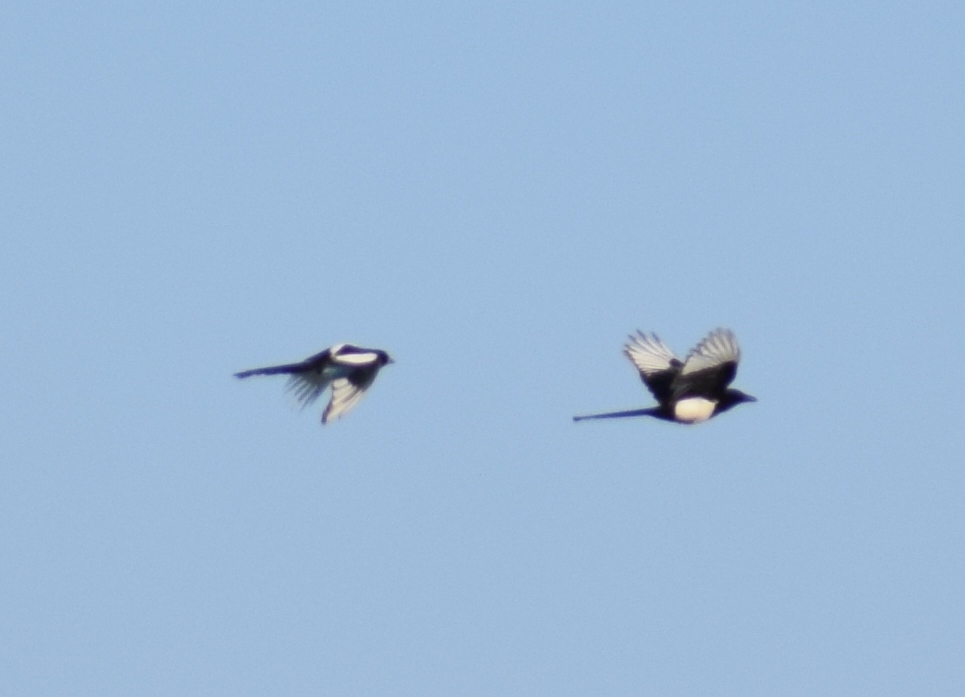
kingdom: Animalia
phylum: Chordata
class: Aves
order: Passeriformes
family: Corvidae
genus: Pica
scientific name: Pica pica
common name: Eurasian magpie
